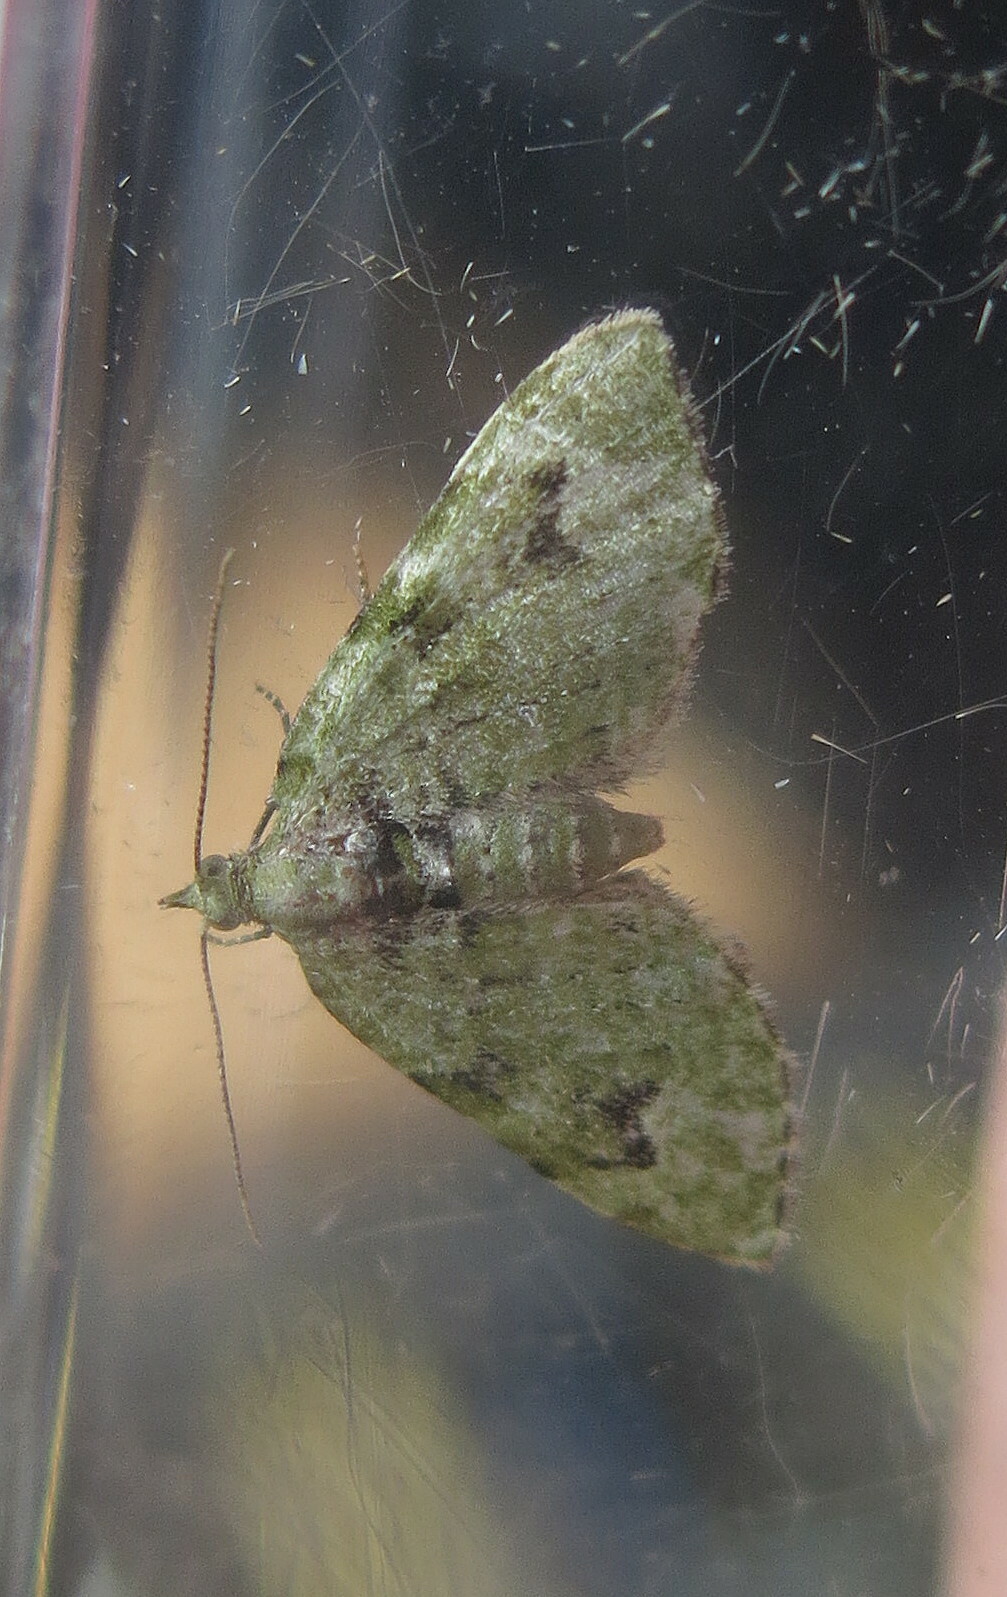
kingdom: Animalia
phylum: Arthropoda
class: Insecta
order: Lepidoptera
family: Geometridae
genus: Chloroclystis
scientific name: Chloroclystis v-ata
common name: V-pug
